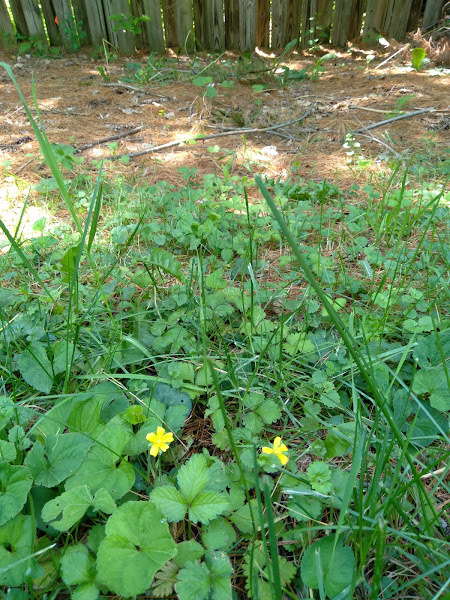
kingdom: Plantae
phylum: Tracheophyta
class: Magnoliopsida
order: Rosales
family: Rosaceae
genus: Potentilla
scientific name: Potentilla indica
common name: Yellow-flowered strawberry
